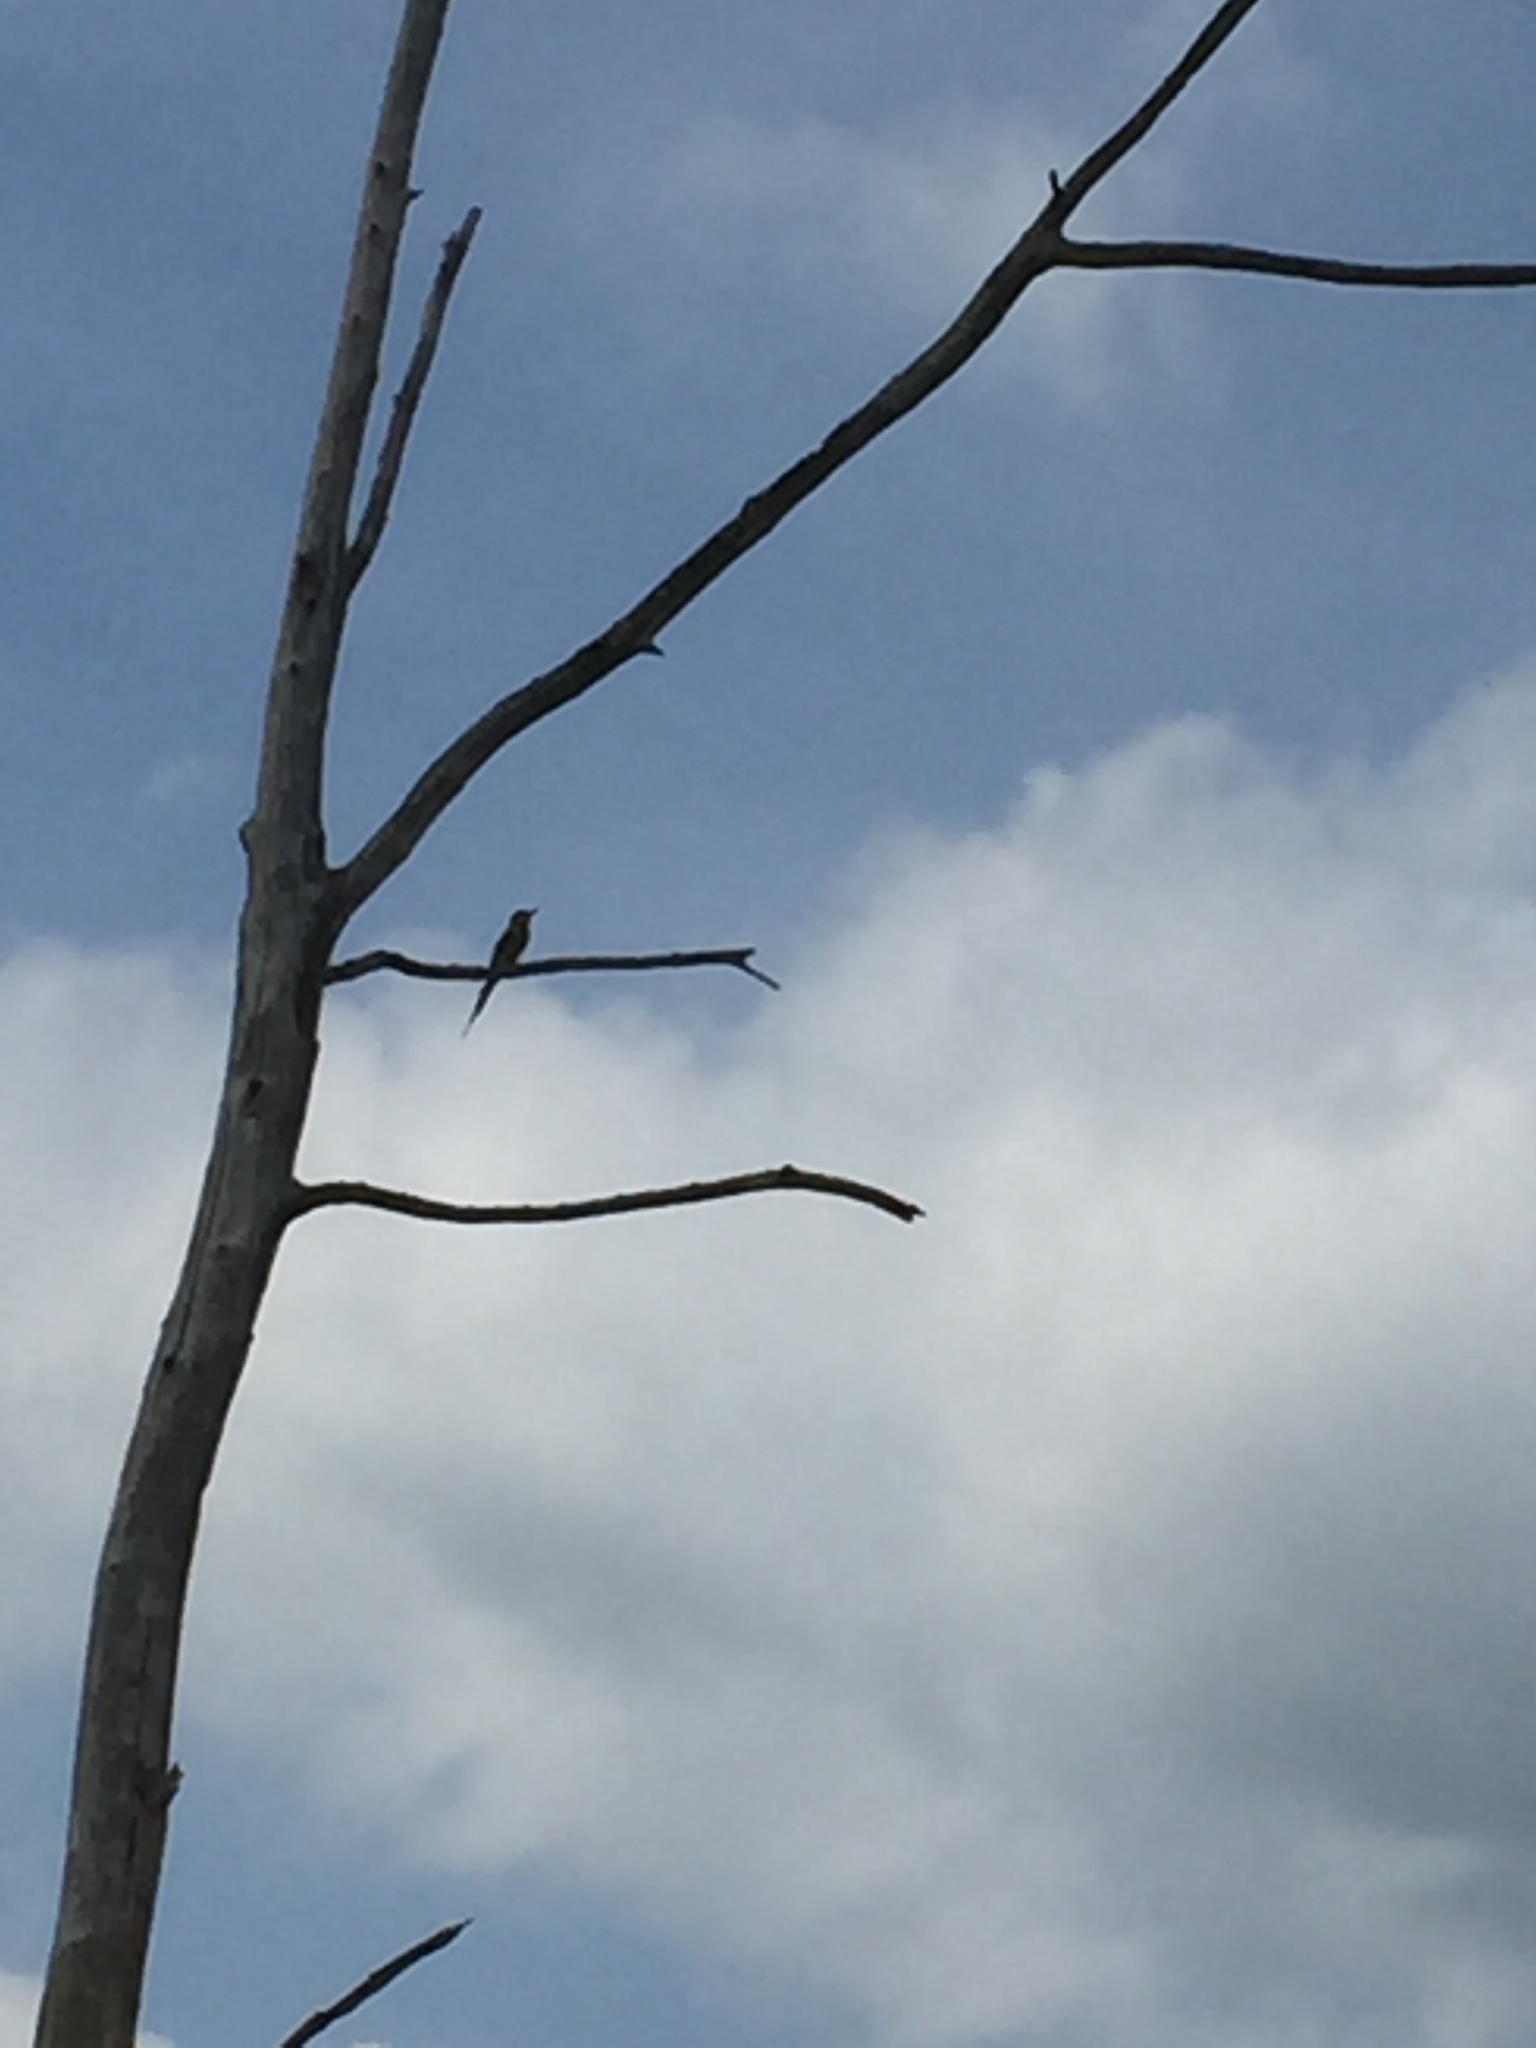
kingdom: Animalia
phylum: Chordata
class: Aves
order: Coraciiformes
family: Meropidae
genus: Merops
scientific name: Merops philippinus
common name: Blue-tailed bee-eater
